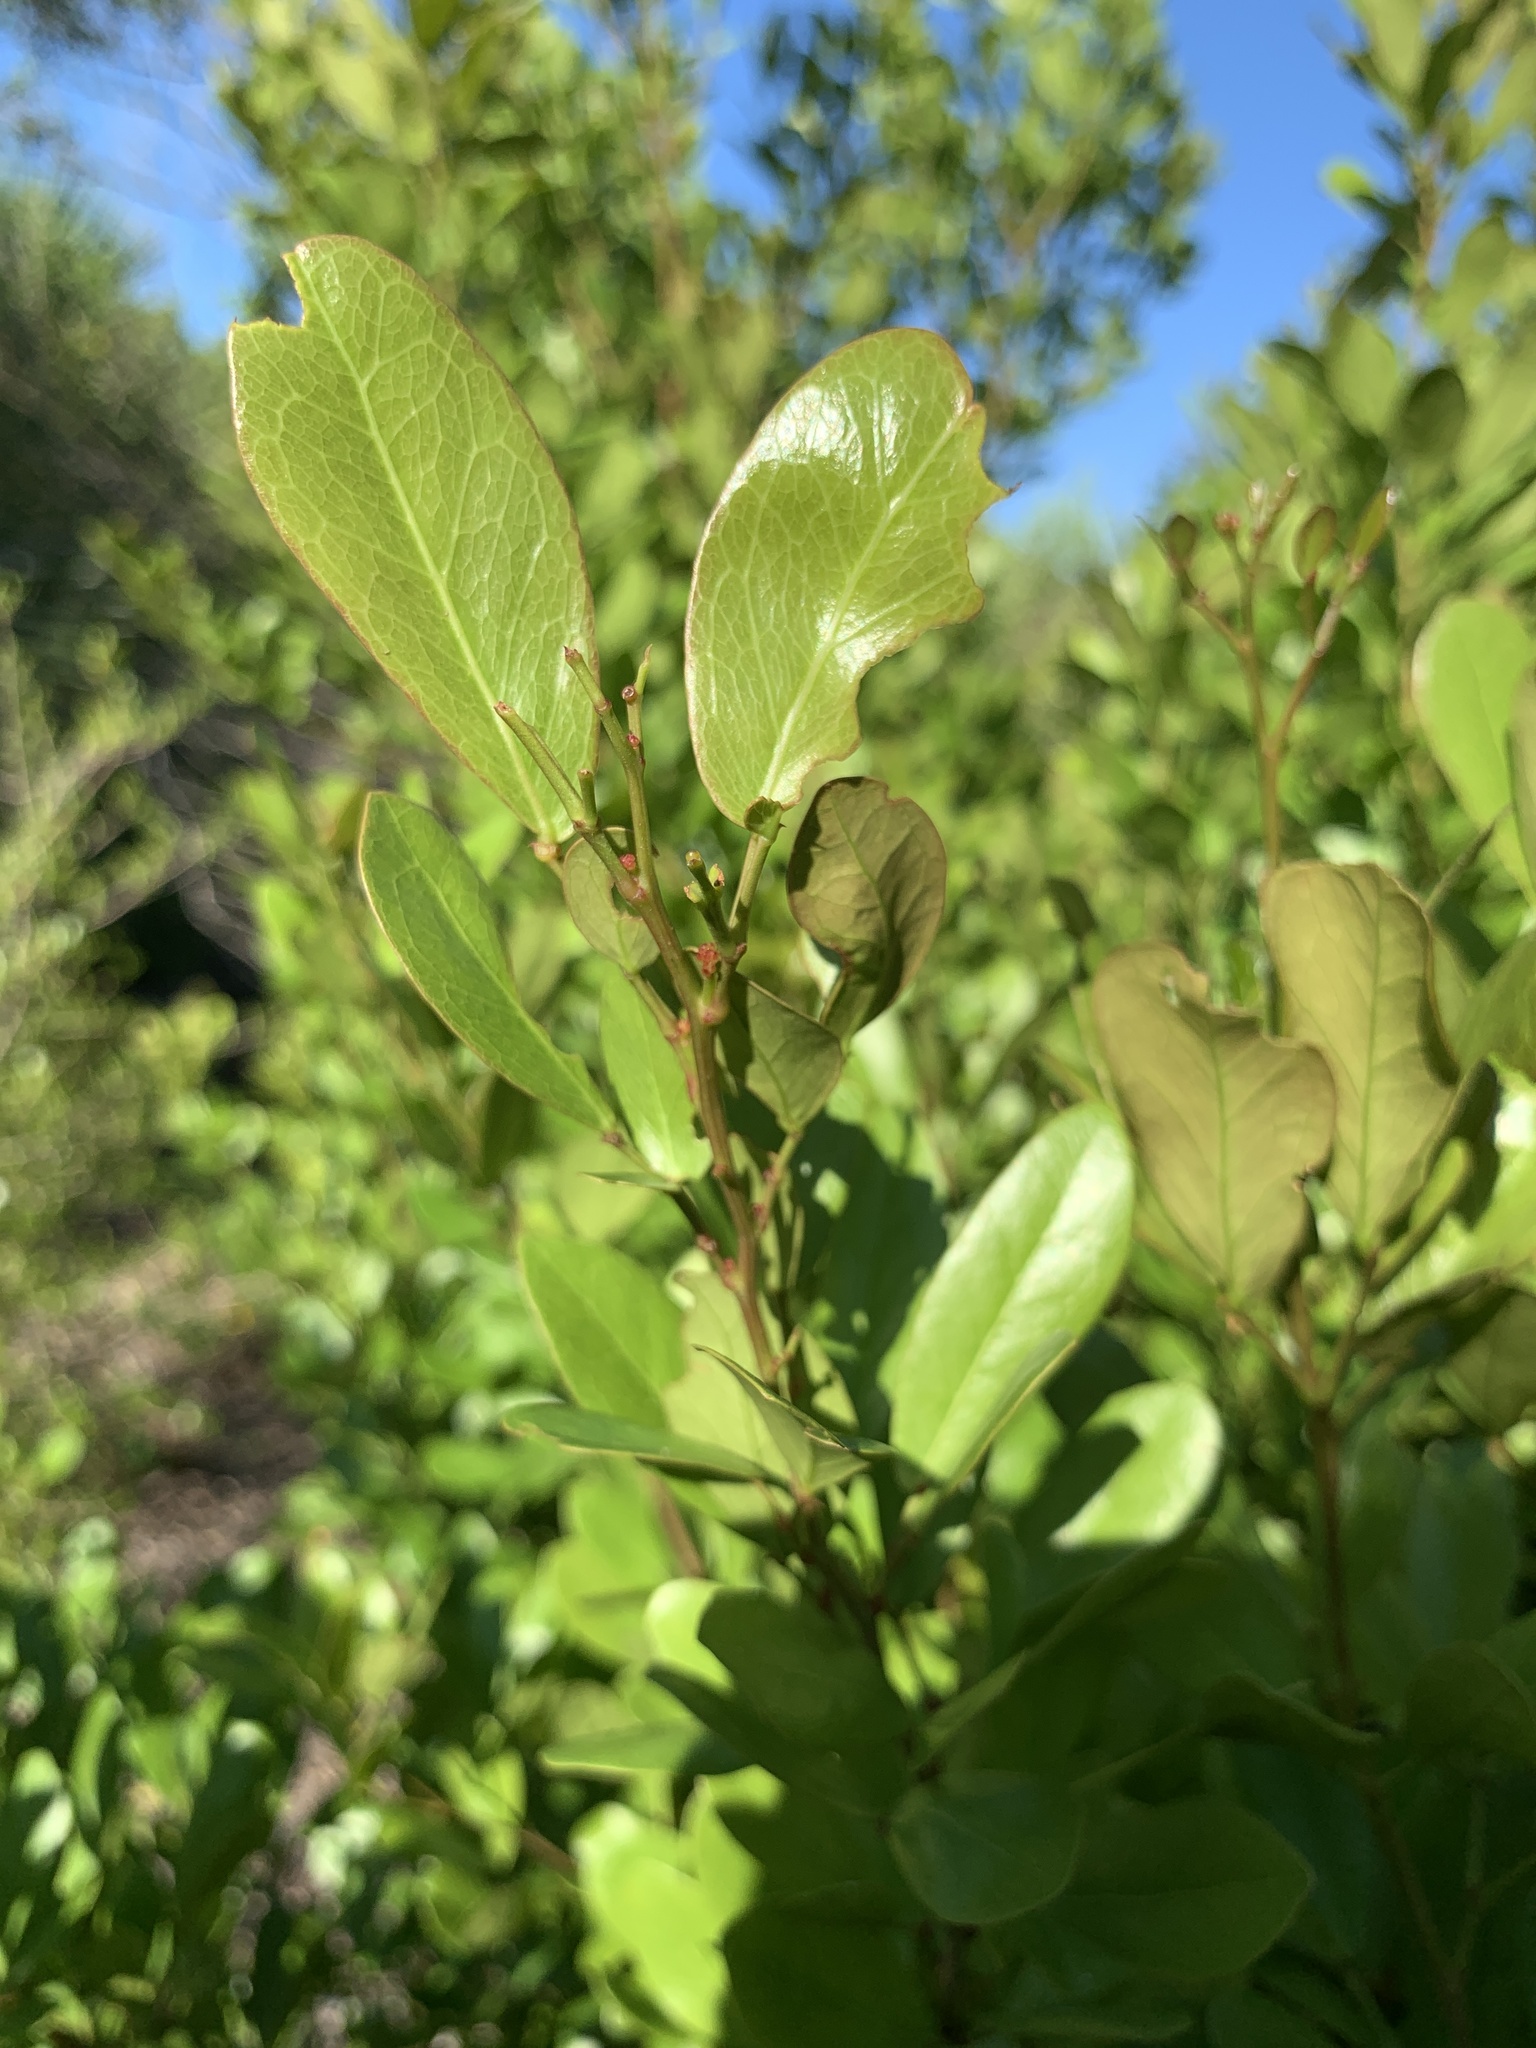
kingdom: Plantae
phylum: Tracheophyta
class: Magnoliopsida
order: Fabales
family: Fabaceae
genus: Pithecellobium
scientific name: Pithecellobium unguis-cati
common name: Cat's-claw
